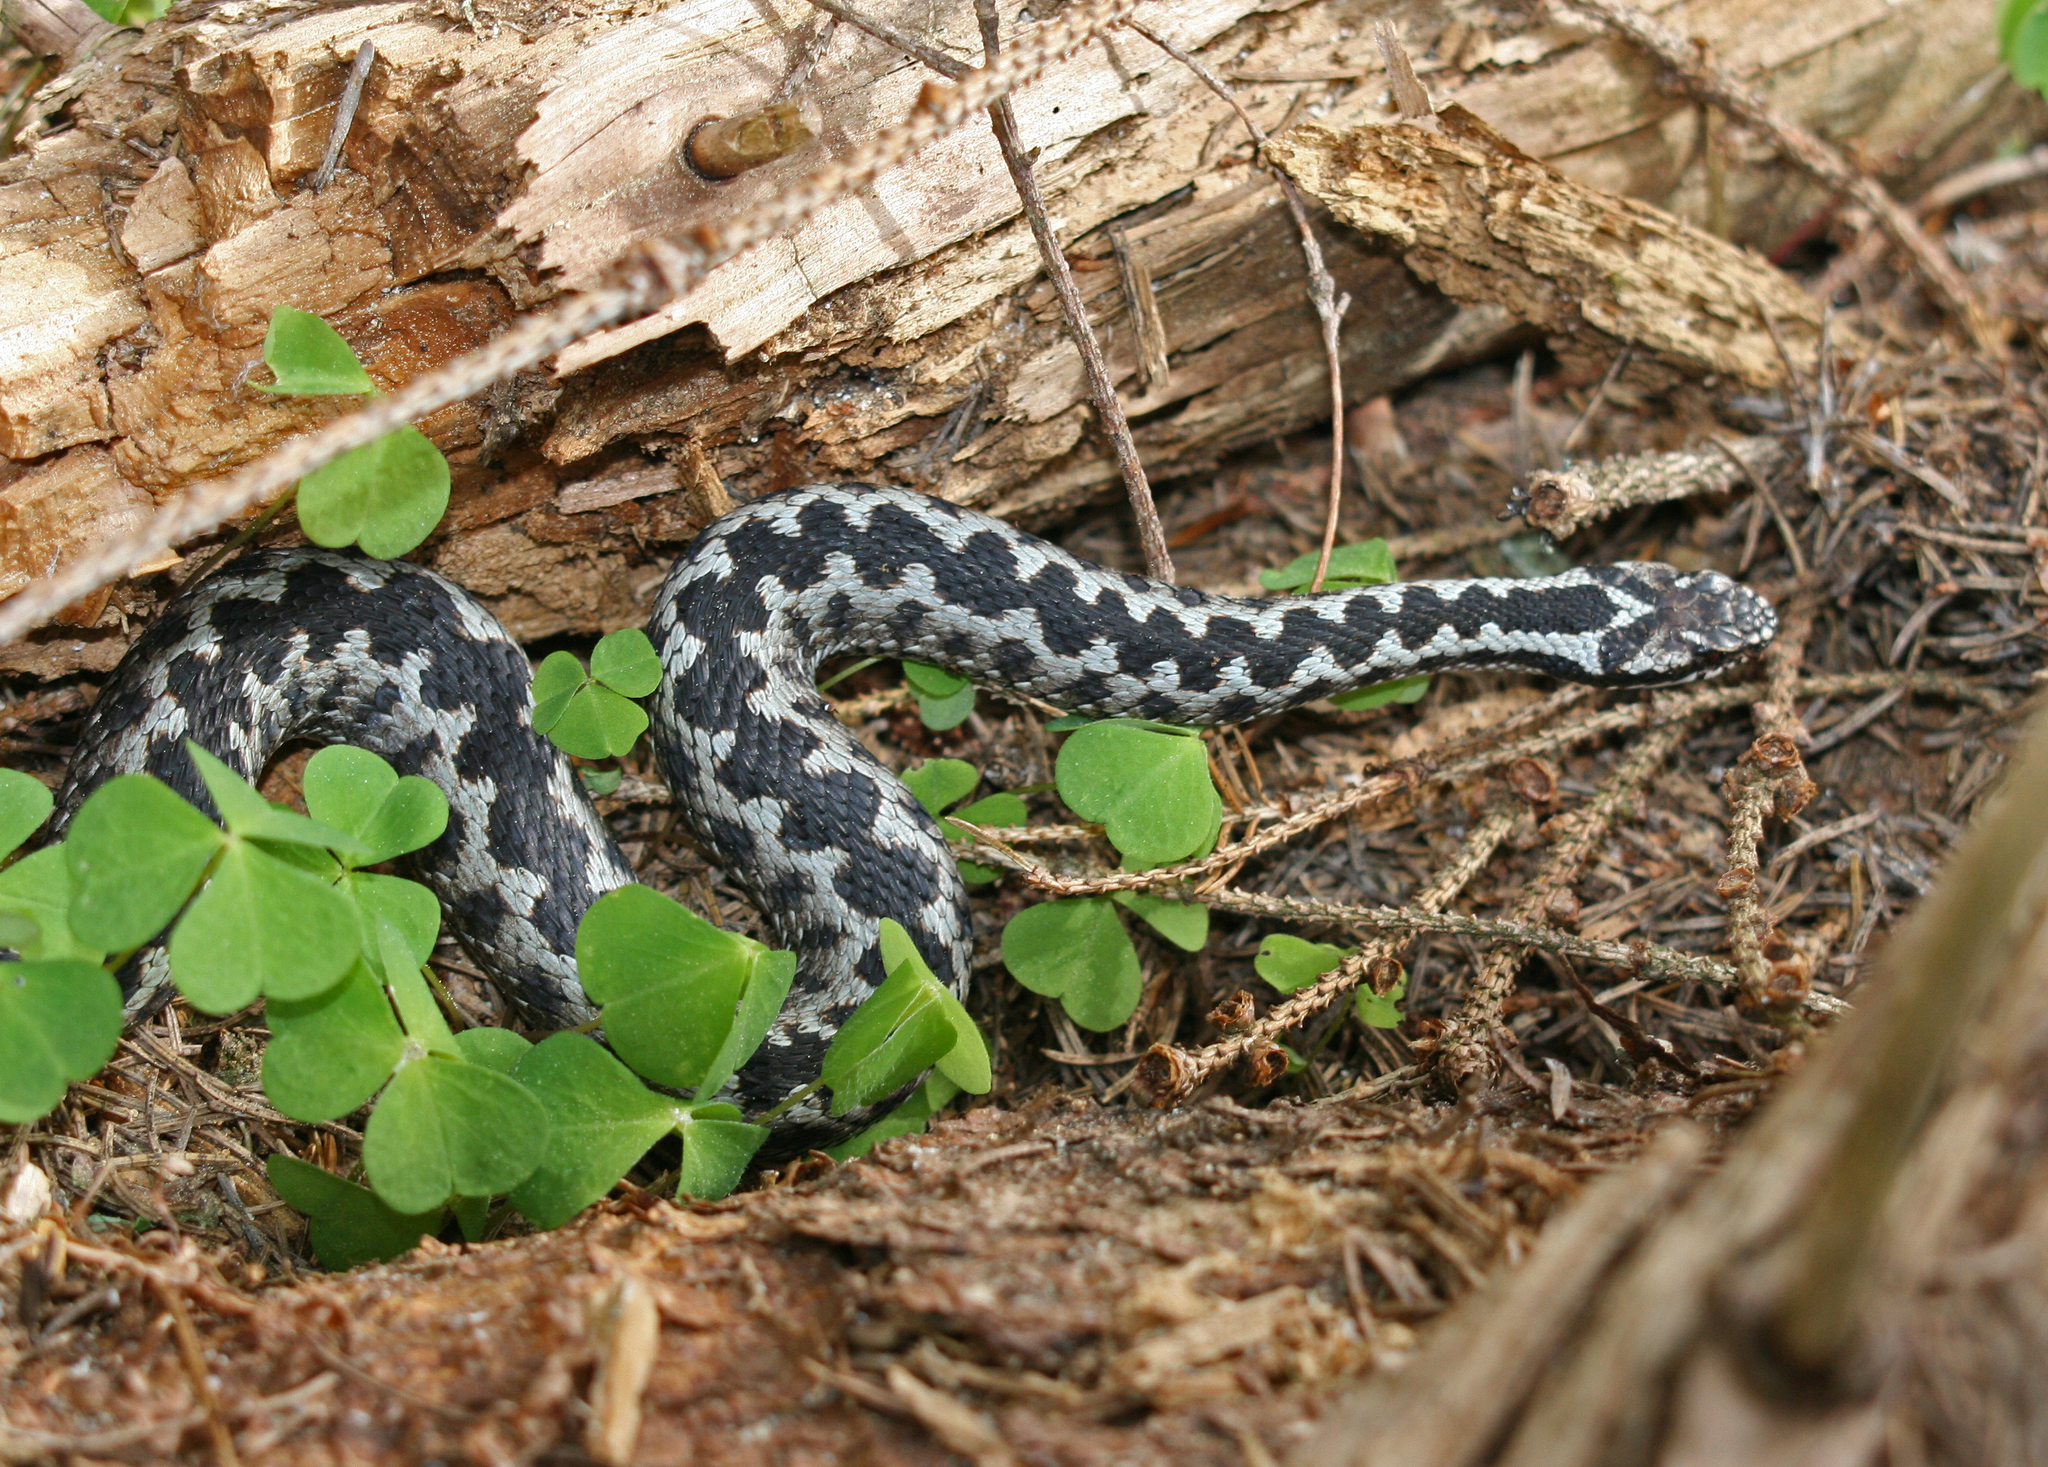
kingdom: Animalia
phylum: Chordata
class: Squamata
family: Viperidae
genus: Vipera
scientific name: Vipera berus
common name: Adder
